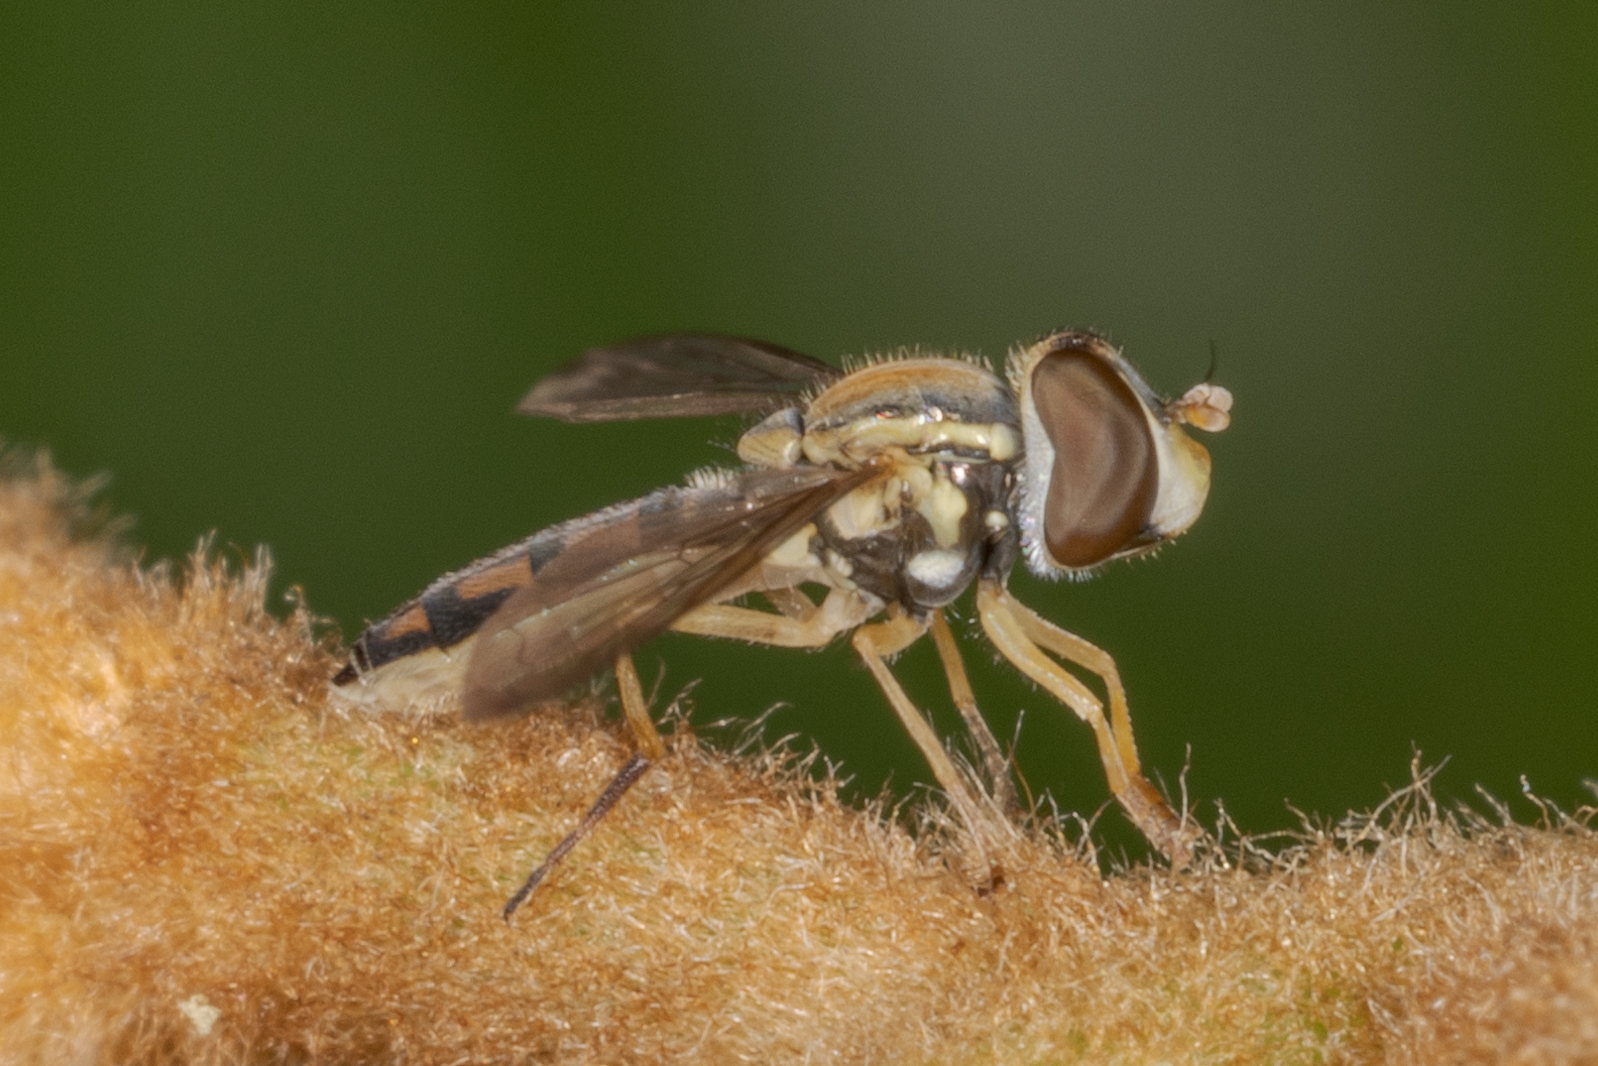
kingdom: Animalia
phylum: Arthropoda
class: Insecta
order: Diptera
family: Syrphidae
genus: Toxomerus
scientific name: Toxomerus marginatus
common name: Syrphid fly
